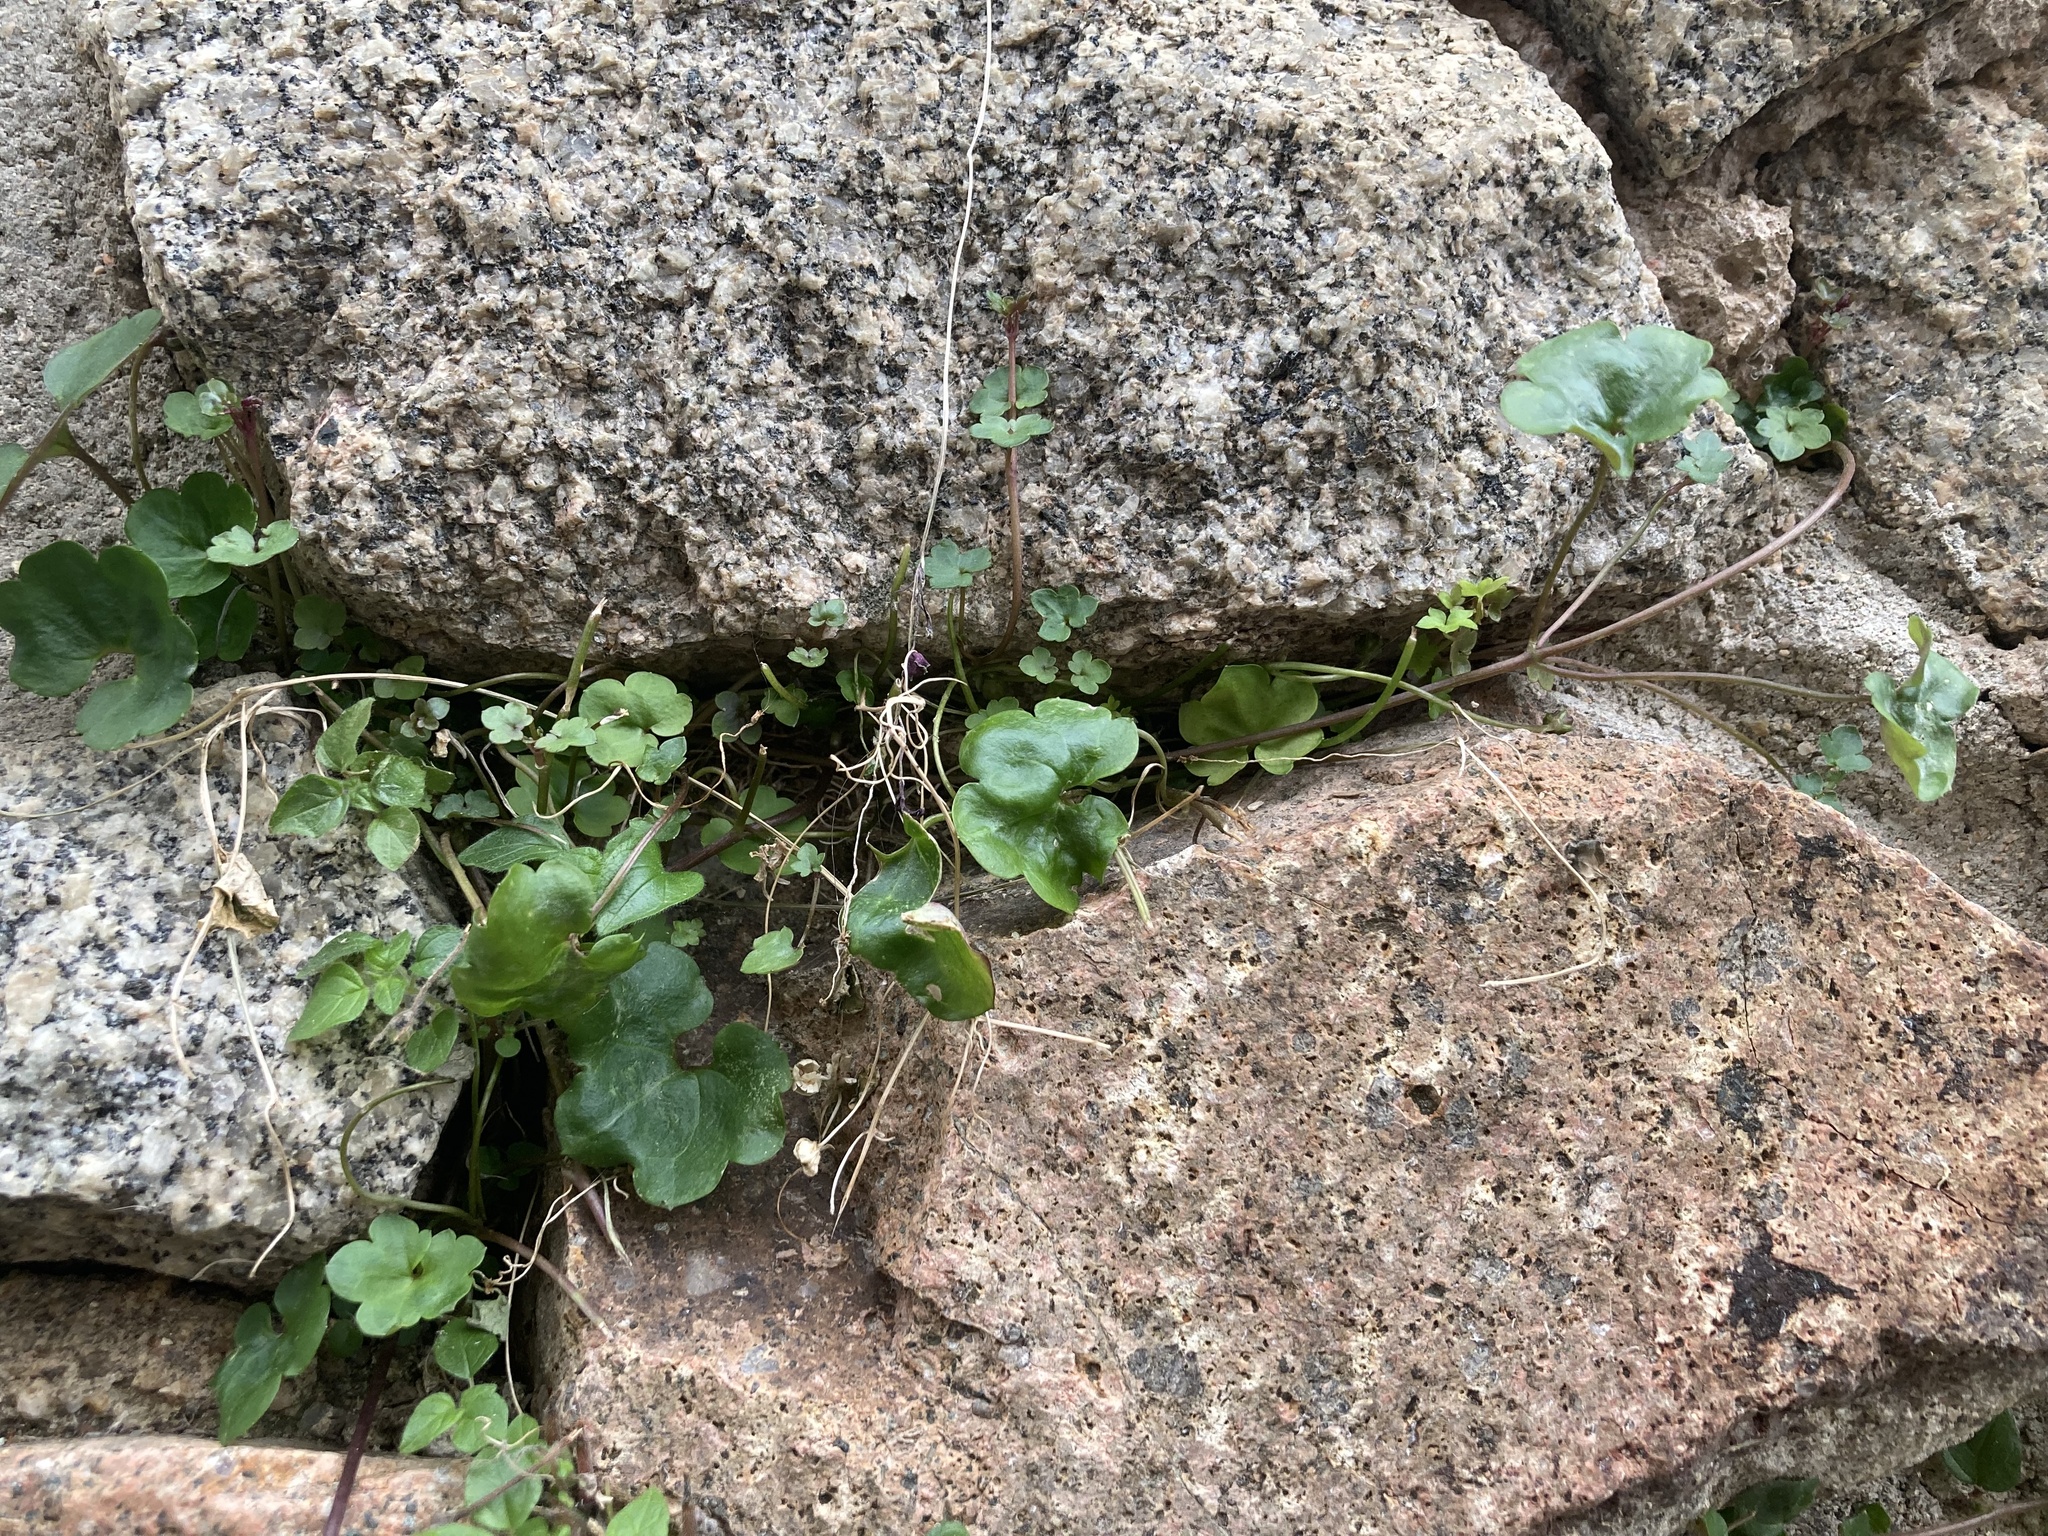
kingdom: Plantae
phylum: Tracheophyta
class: Magnoliopsida
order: Lamiales
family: Plantaginaceae
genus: Cymbalaria
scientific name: Cymbalaria muralis
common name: Ivy-leaved toadflax
